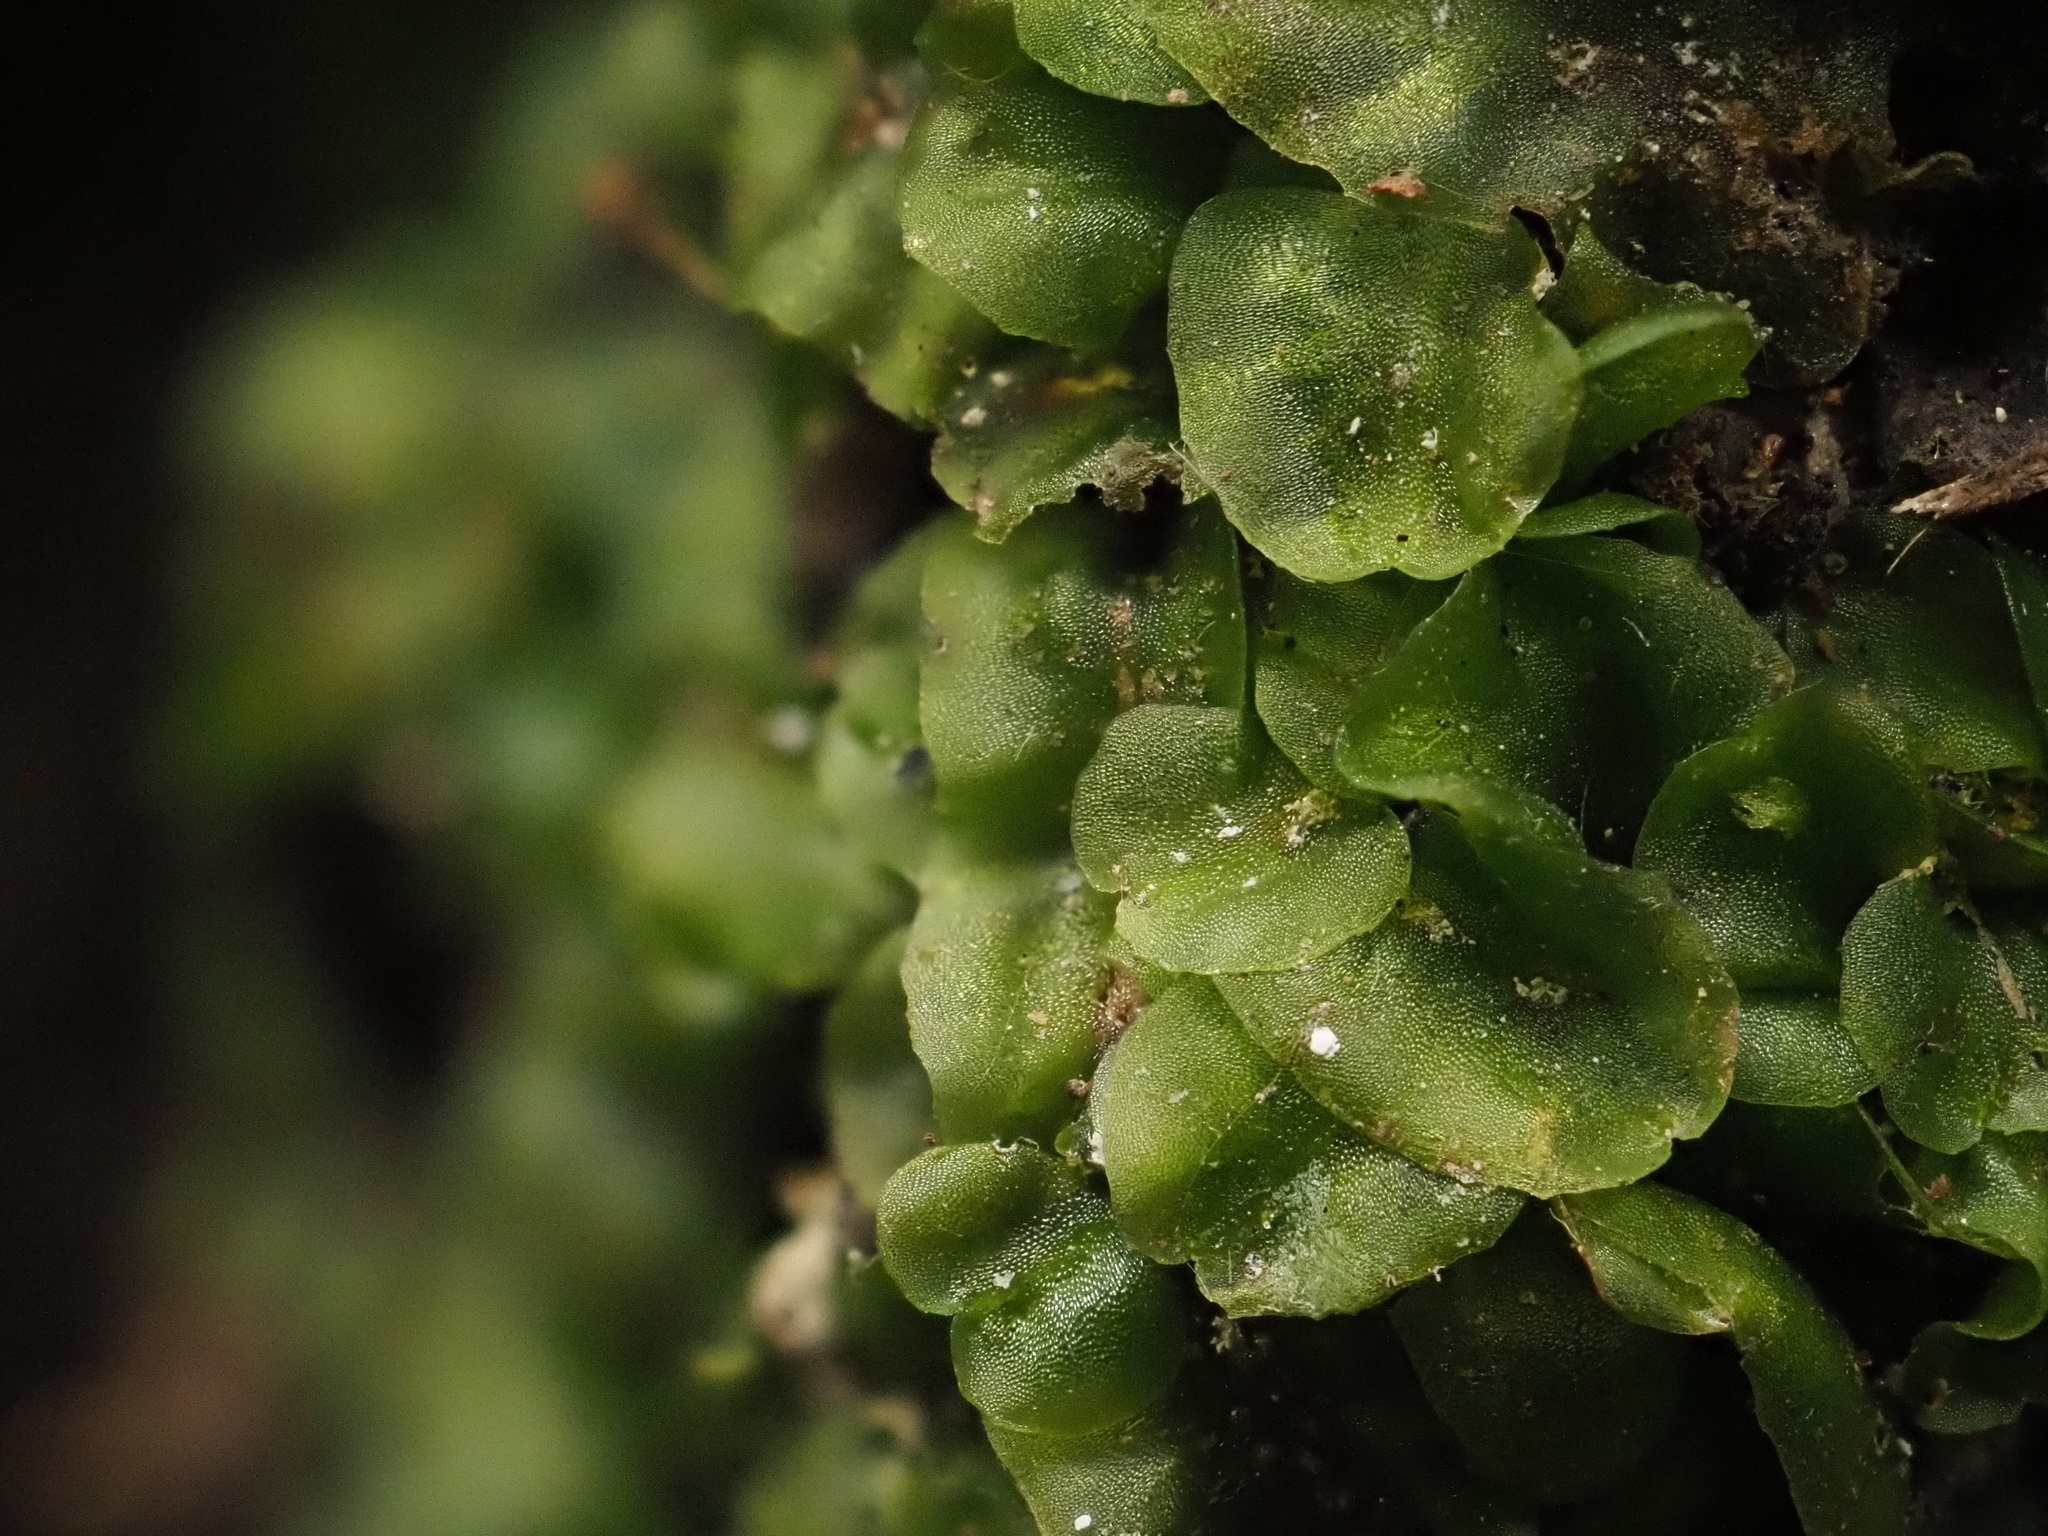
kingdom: Plantae
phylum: Marchantiophyta
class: Jungermanniopsida
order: Pallaviciniales
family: Pallaviciniaceae
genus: Pallavicinia
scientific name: Pallavicinia lyellii
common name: Veilwort
